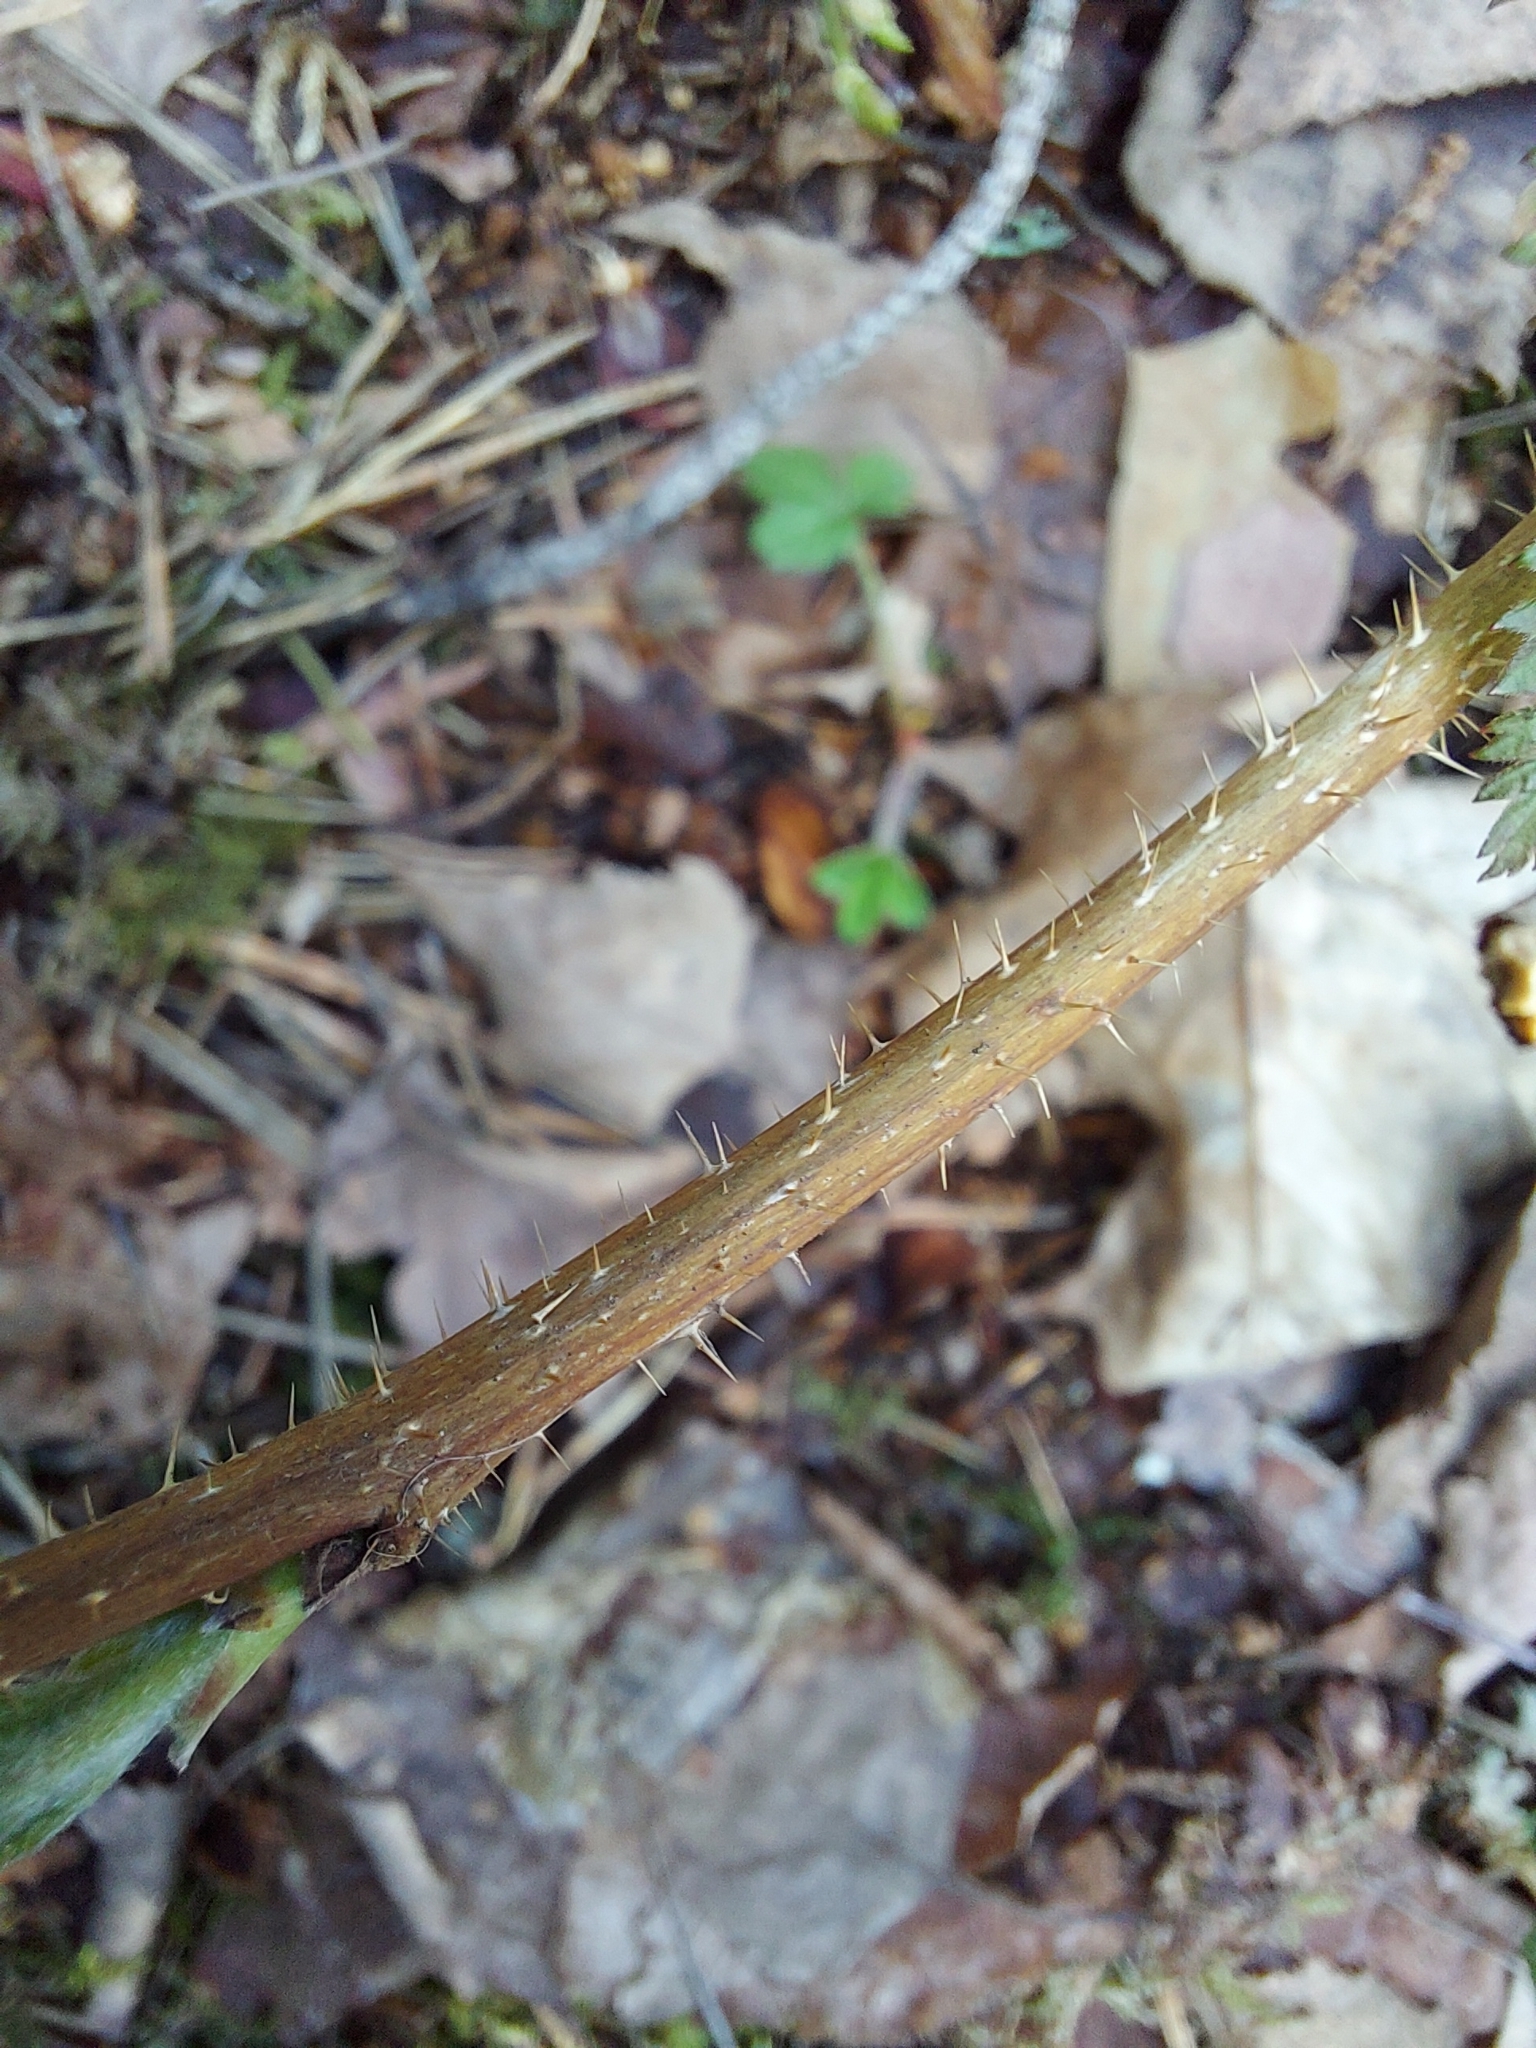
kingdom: Plantae
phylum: Tracheophyta
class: Magnoliopsida
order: Rosales
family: Rosaceae
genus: Rubus
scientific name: Rubus idaeus
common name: Raspberry
